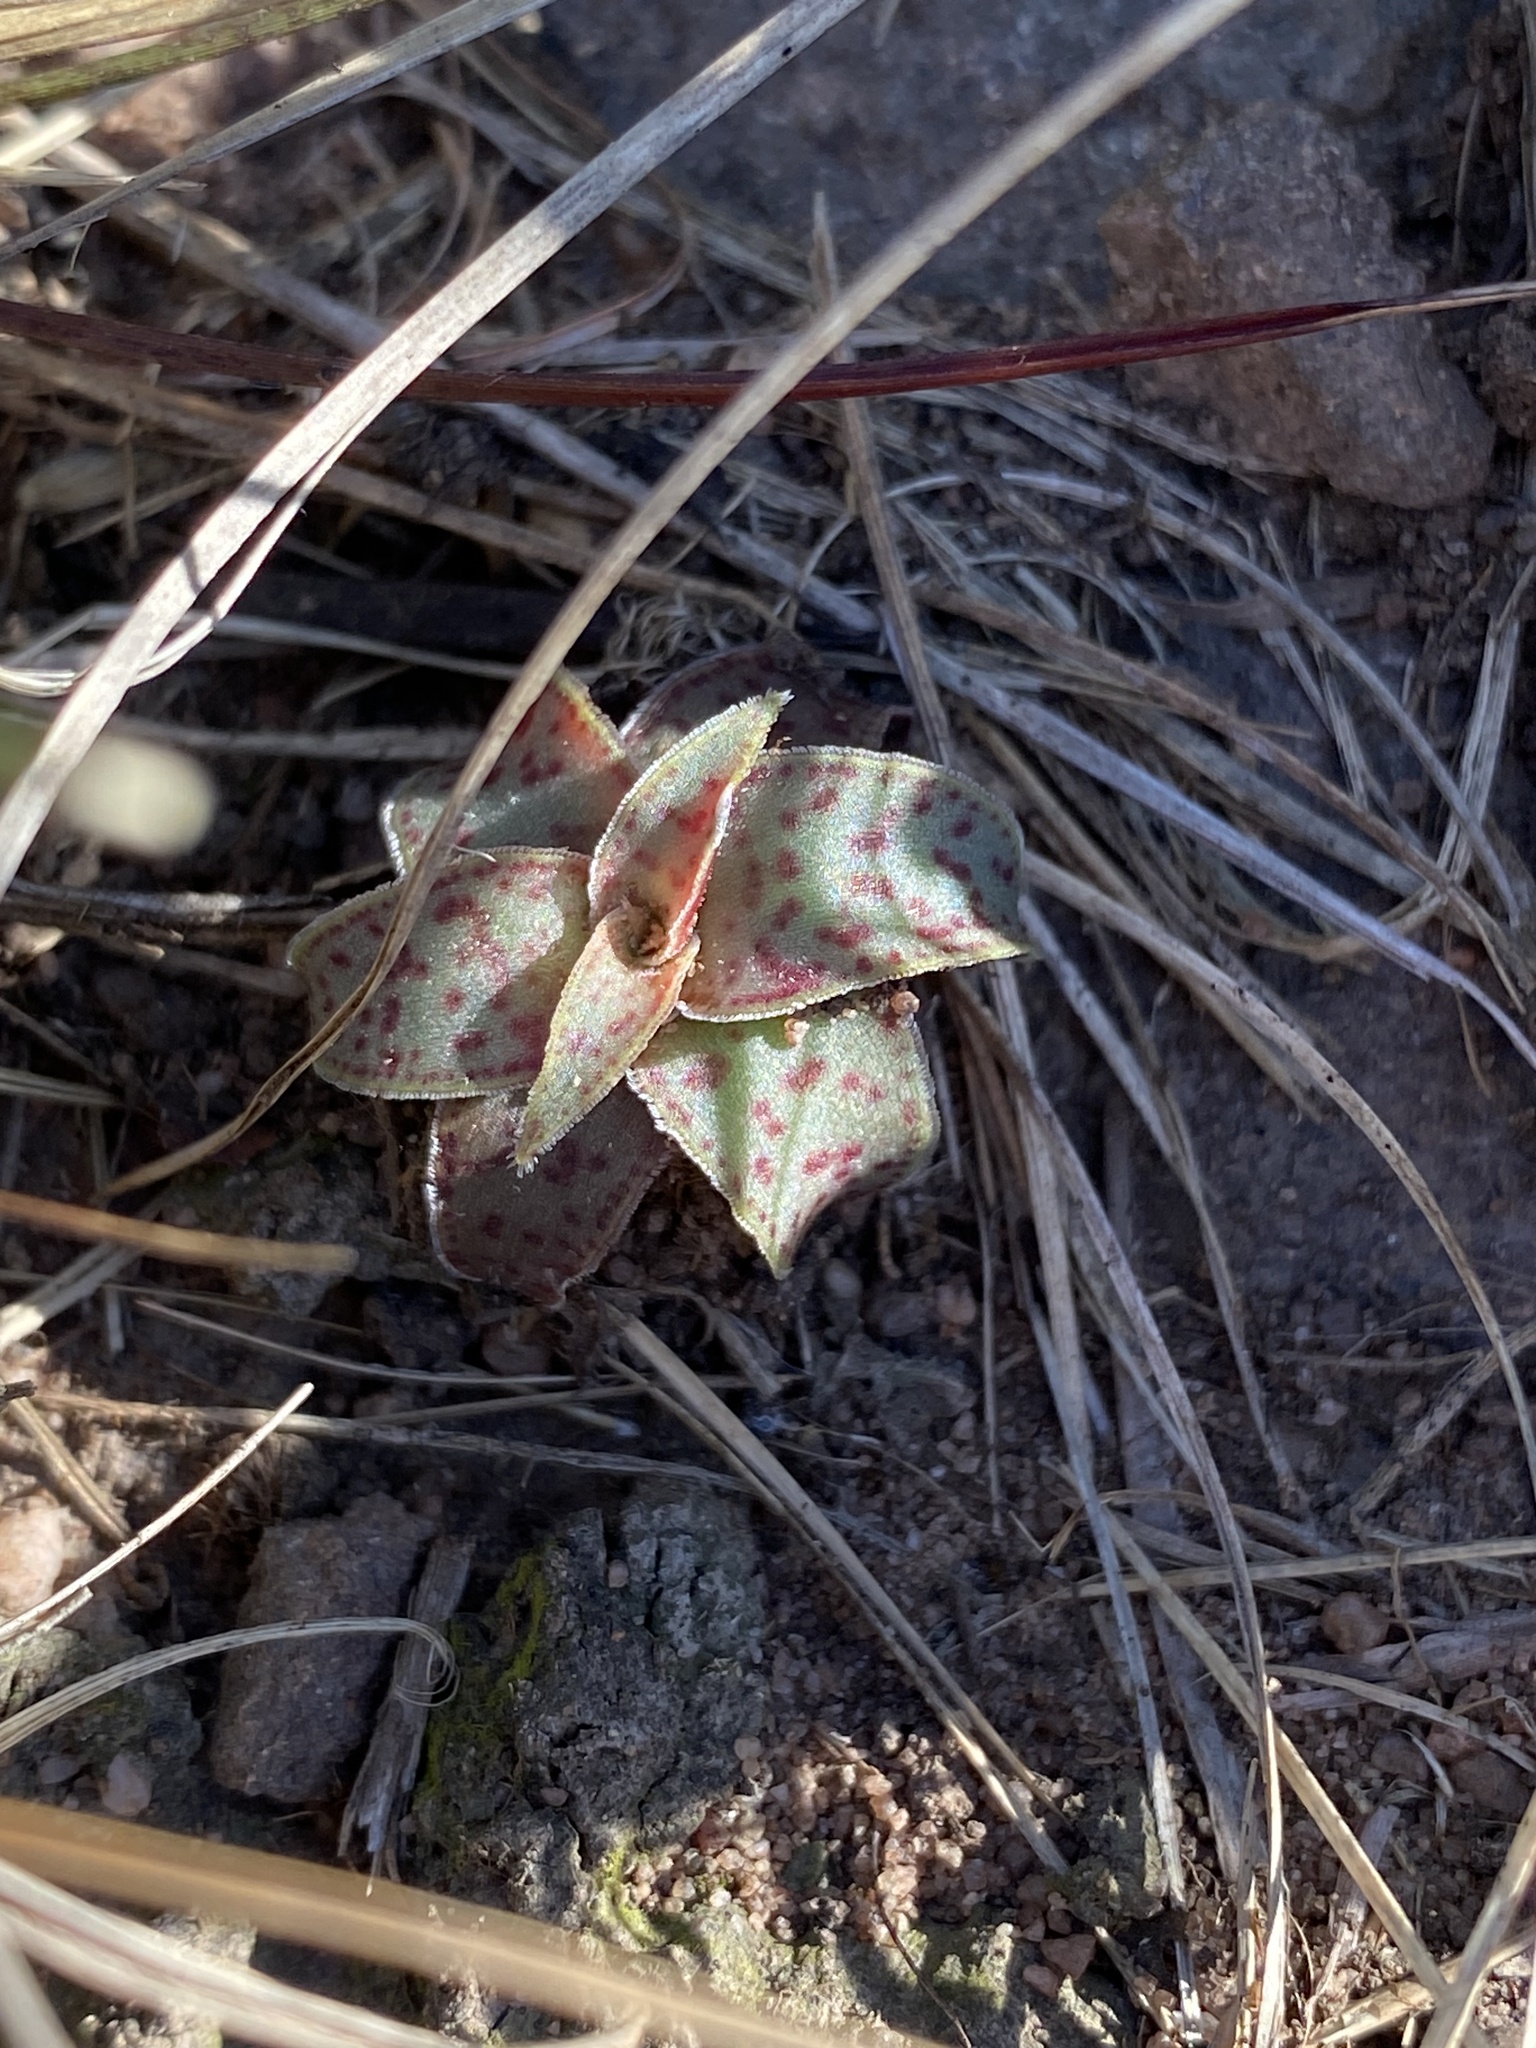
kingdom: Plantae
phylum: Tracheophyta
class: Magnoliopsida
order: Saxifragales
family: Crassulaceae
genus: Crassula
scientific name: Crassula alba
